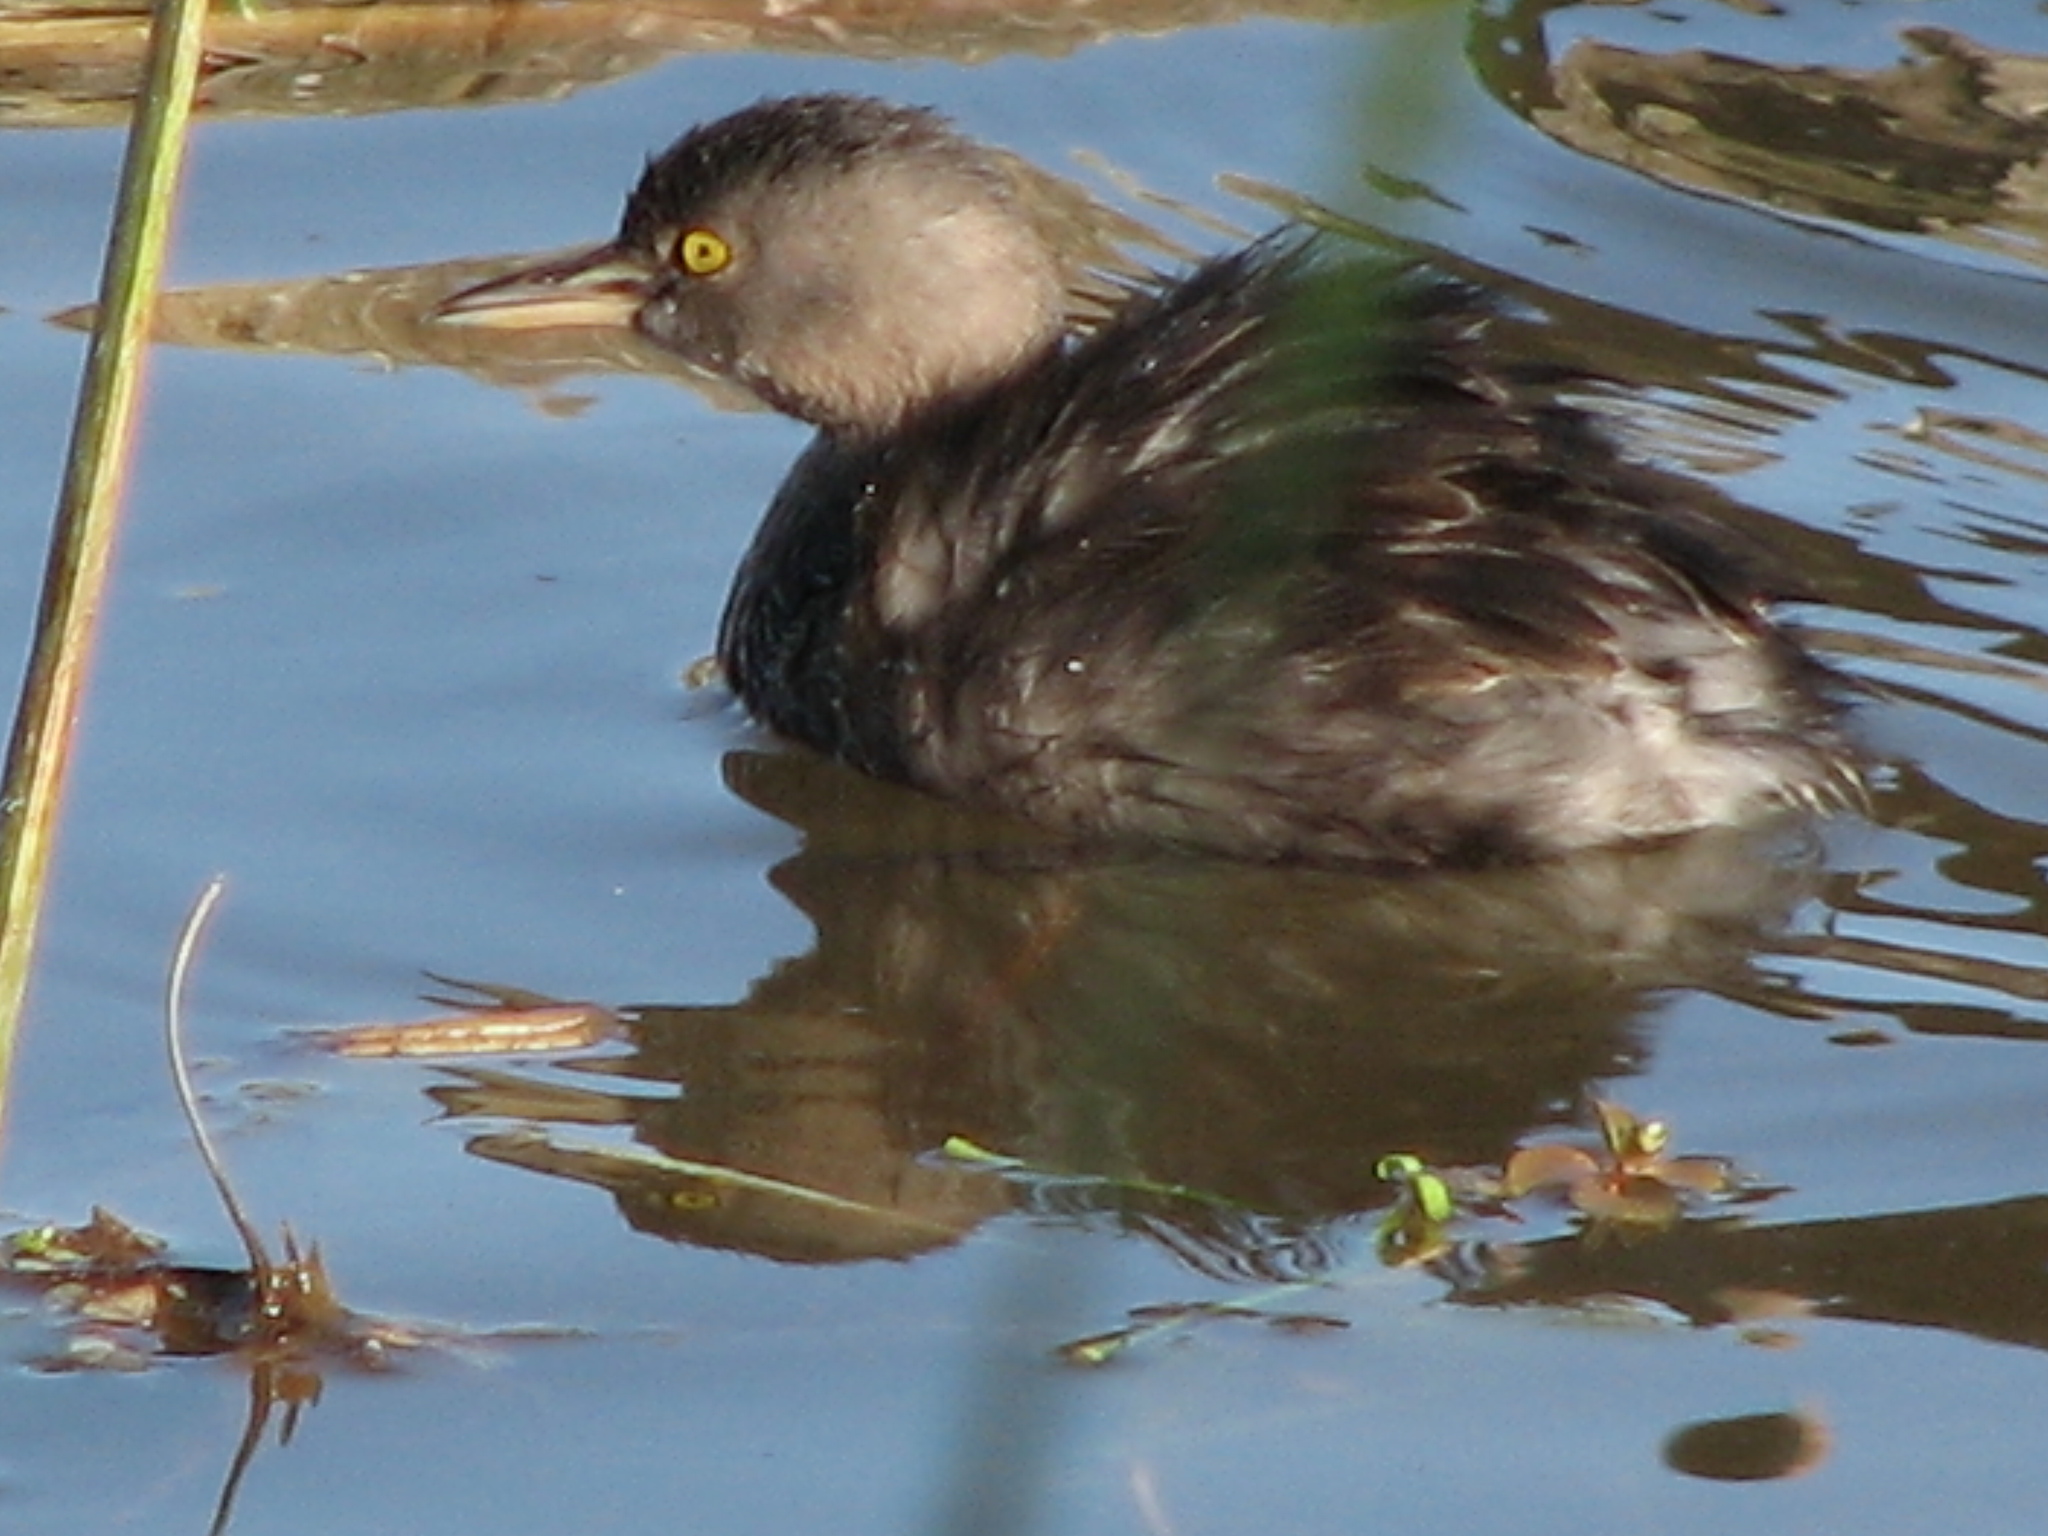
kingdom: Animalia
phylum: Chordata
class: Aves
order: Podicipediformes
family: Podicipedidae
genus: Tachybaptus
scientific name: Tachybaptus dominicus
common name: Least grebe
